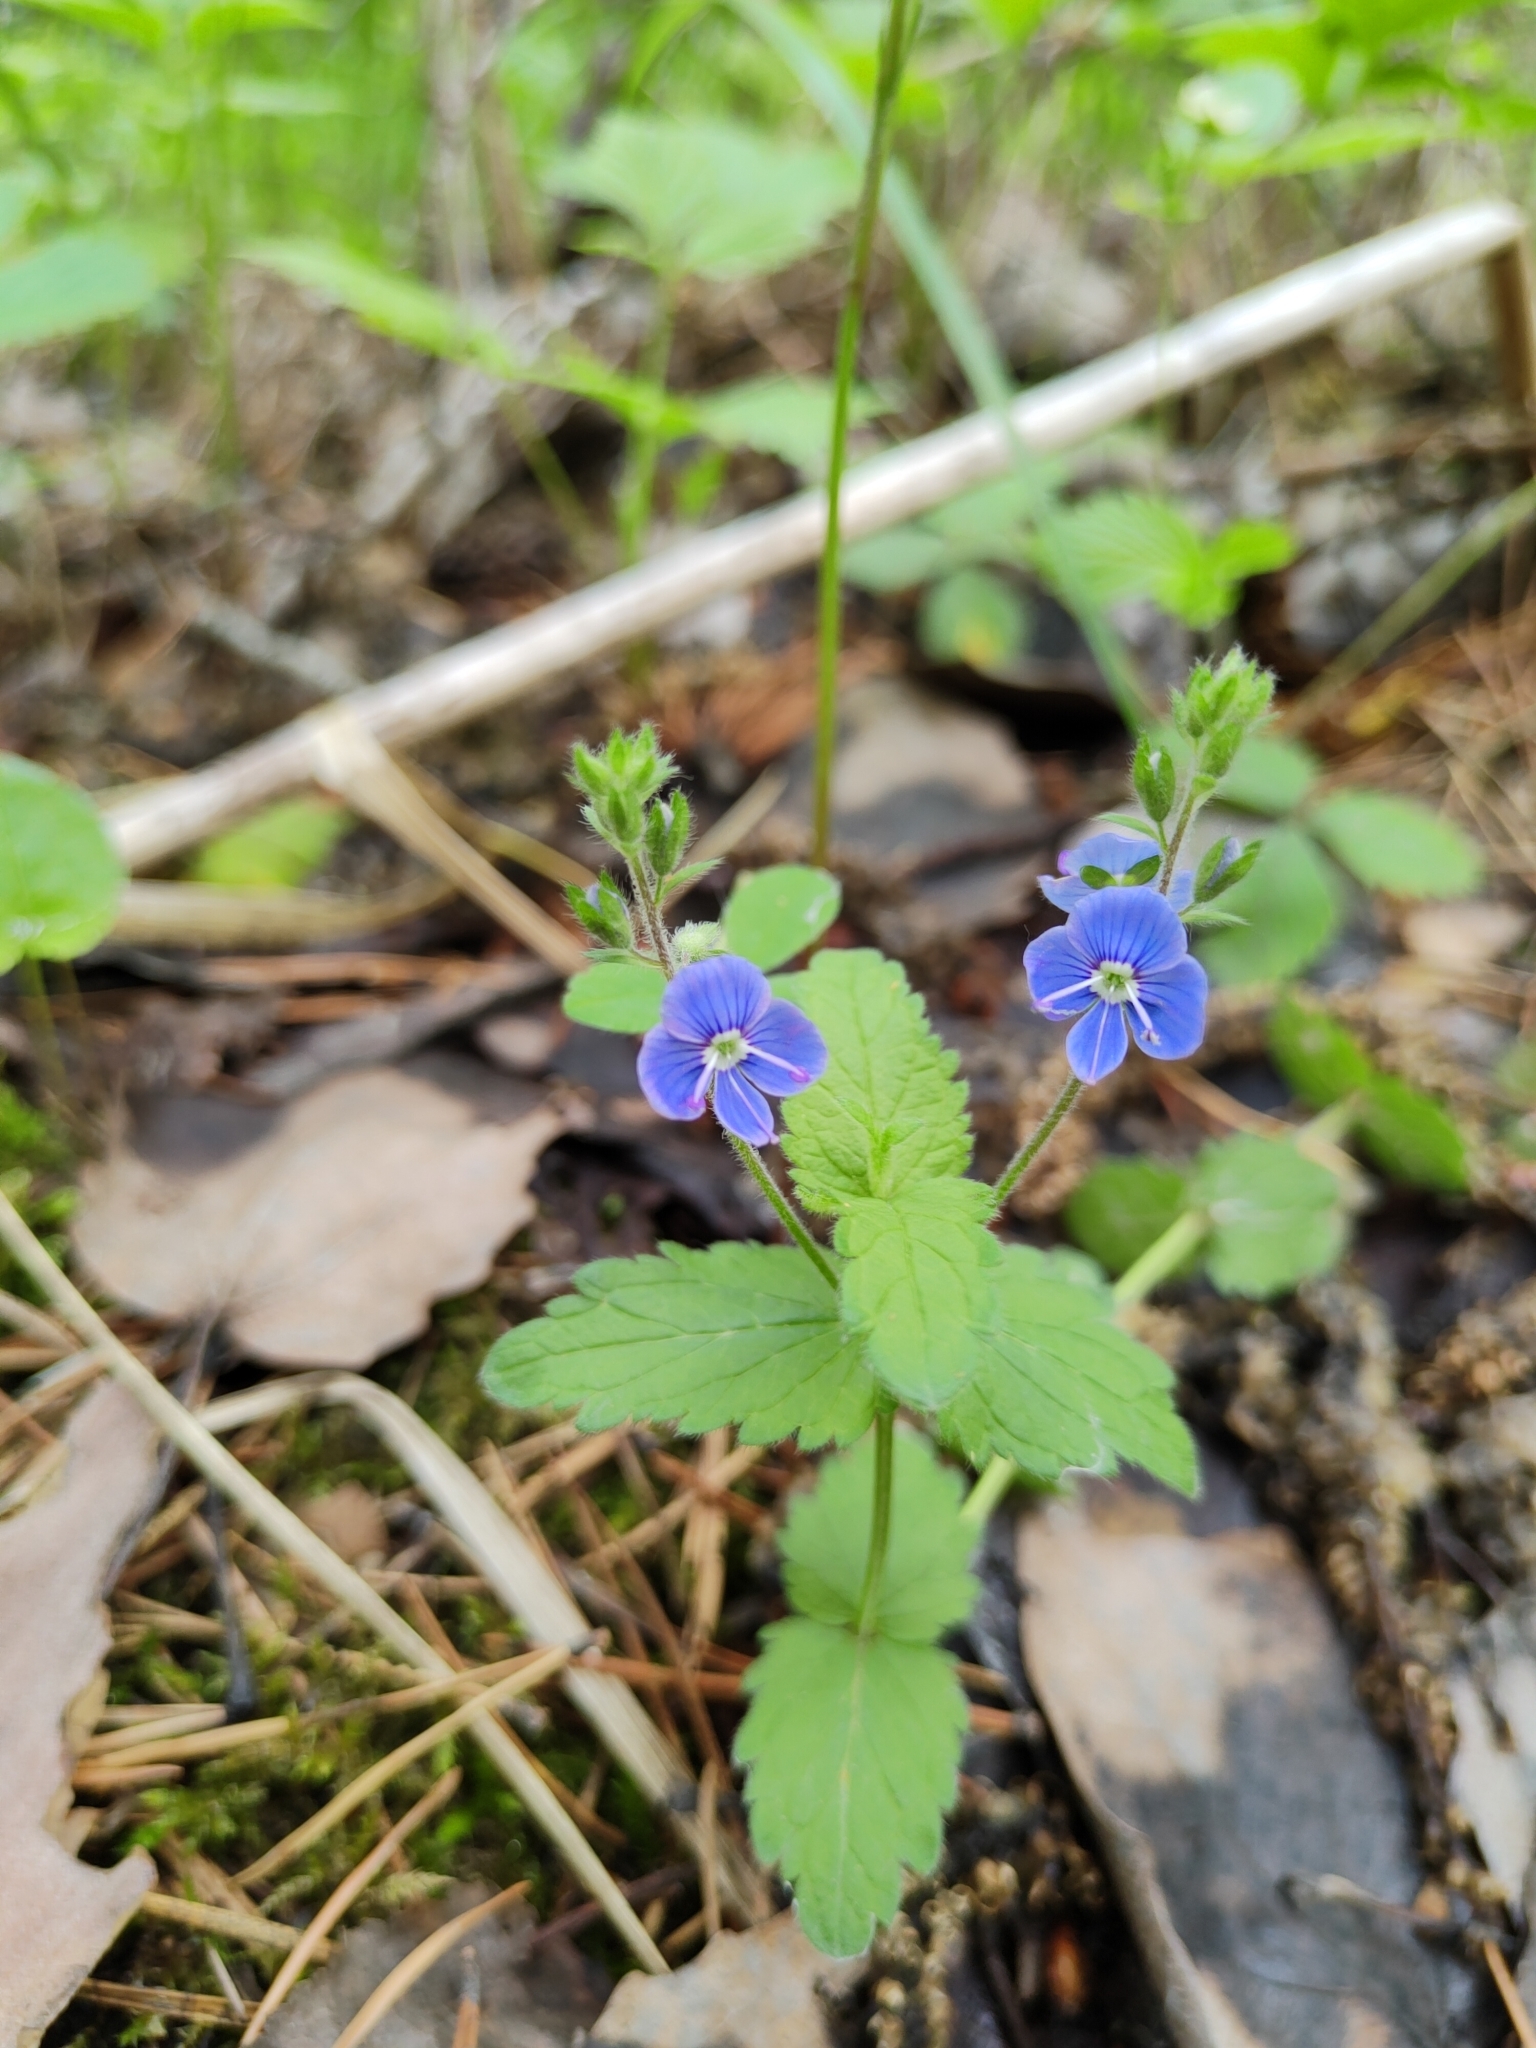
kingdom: Plantae
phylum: Tracheophyta
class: Magnoliopsida
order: Lamiales
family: Plantaginaceae
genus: Veronica
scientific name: Veronica chamaedrys
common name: Germander speedwell
